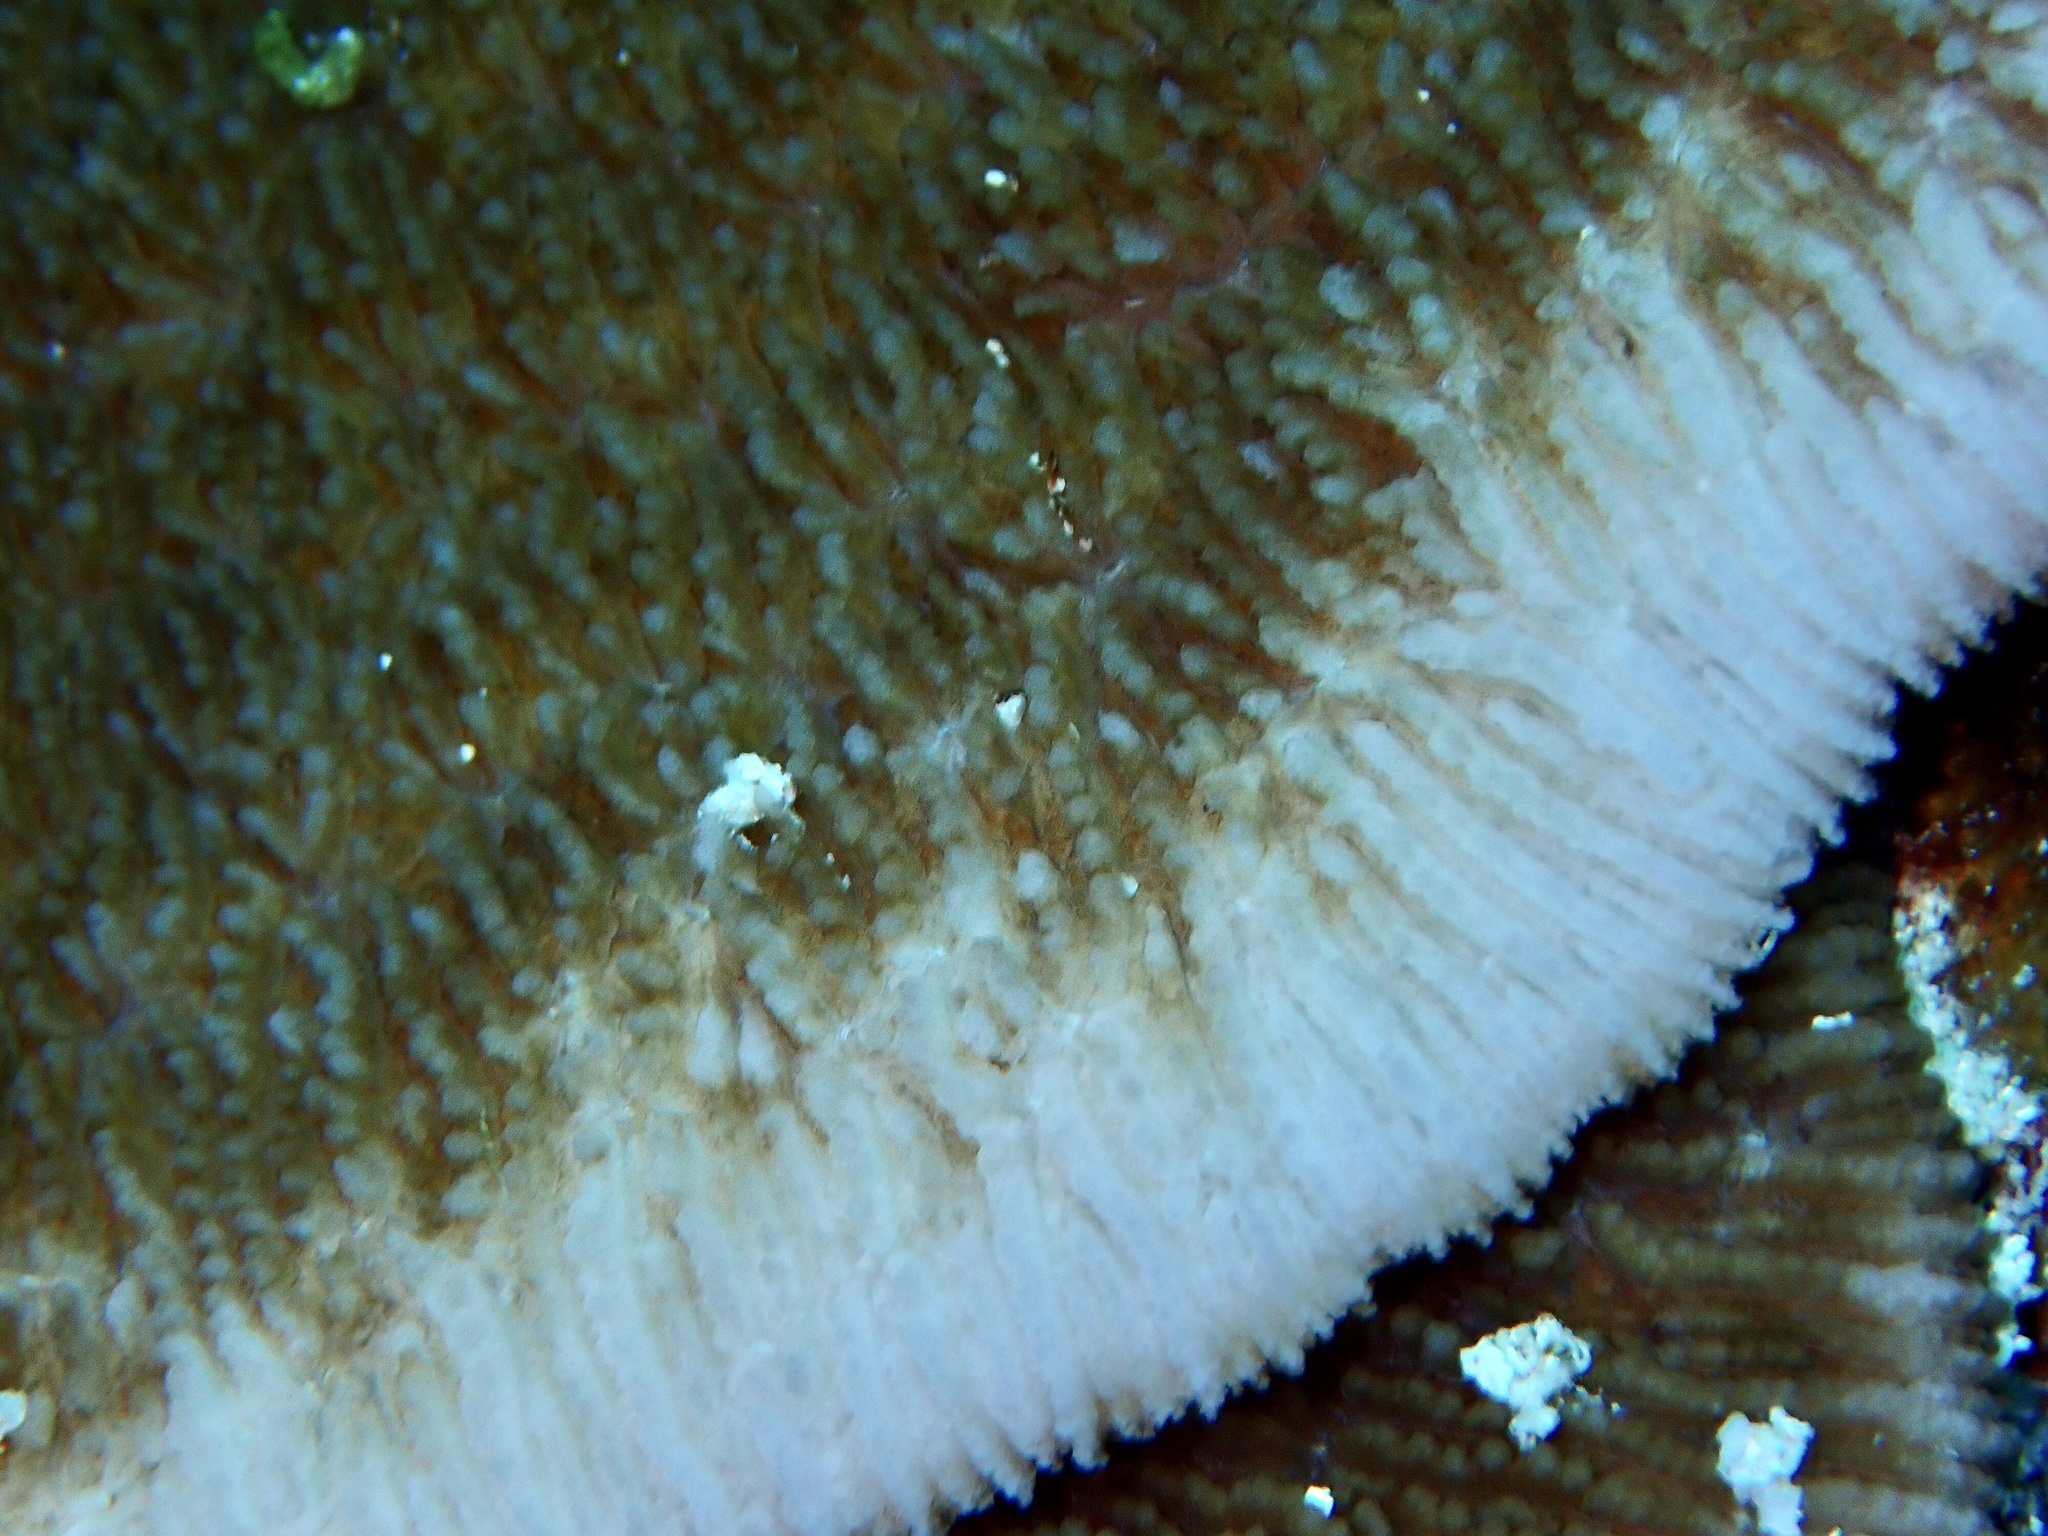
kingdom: Animalia
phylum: Cnidaria
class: Anthozoa
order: Scleractinia
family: Fungiidae
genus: Podabacia
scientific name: Podabacia sinai
